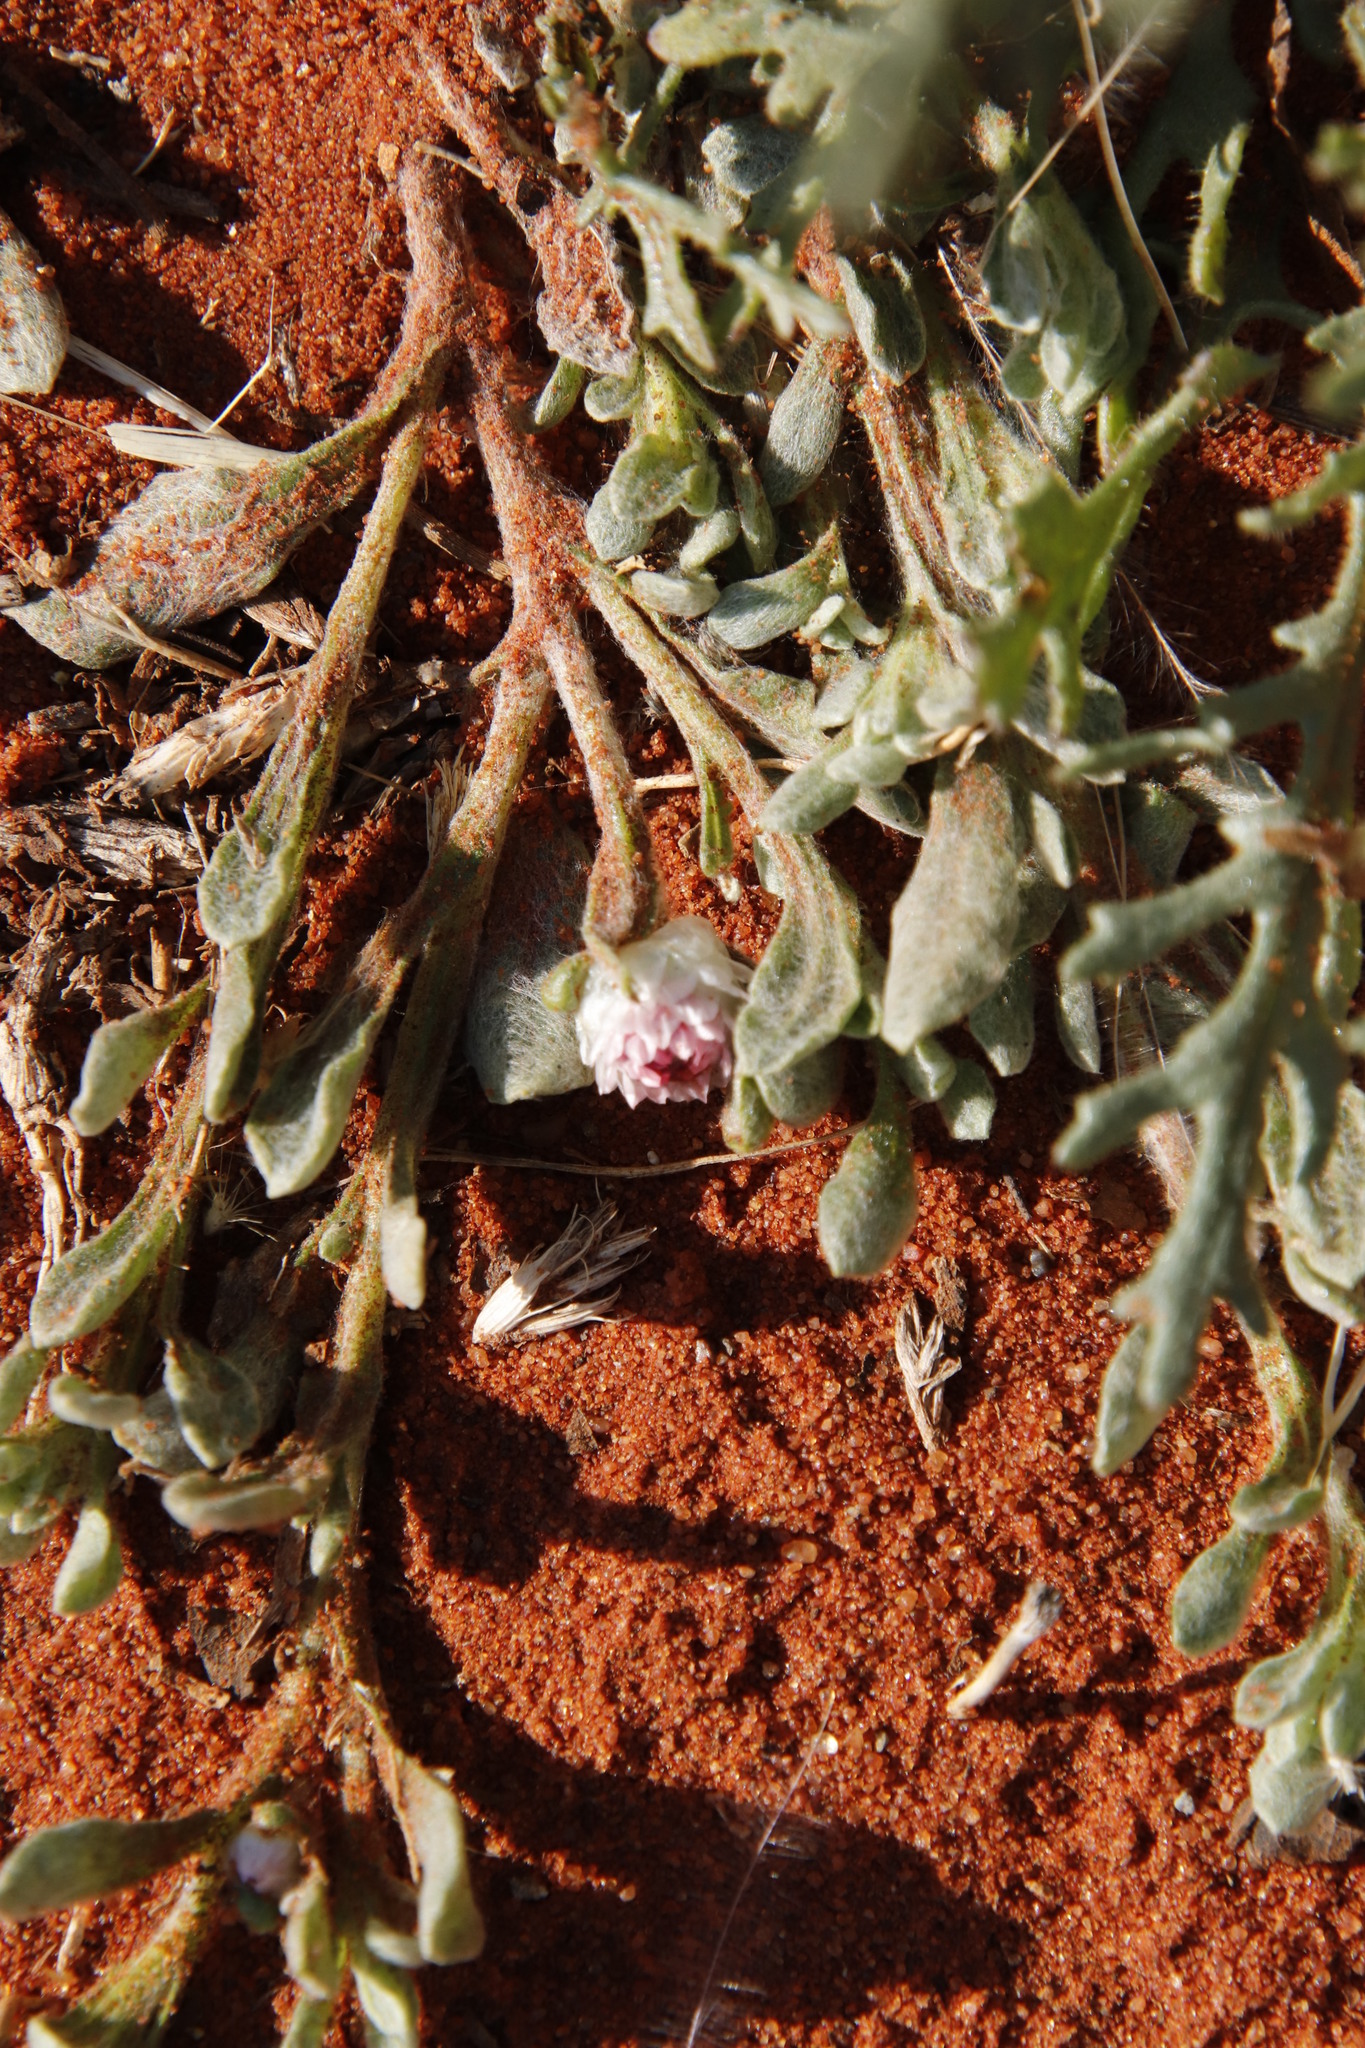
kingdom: Plantae
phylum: Tracheophyta
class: Magnoliopsida
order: Asterales
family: Asteraceae
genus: Helichrysum
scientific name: Helichrysum argyrosphaerum
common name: Wild everlasting
